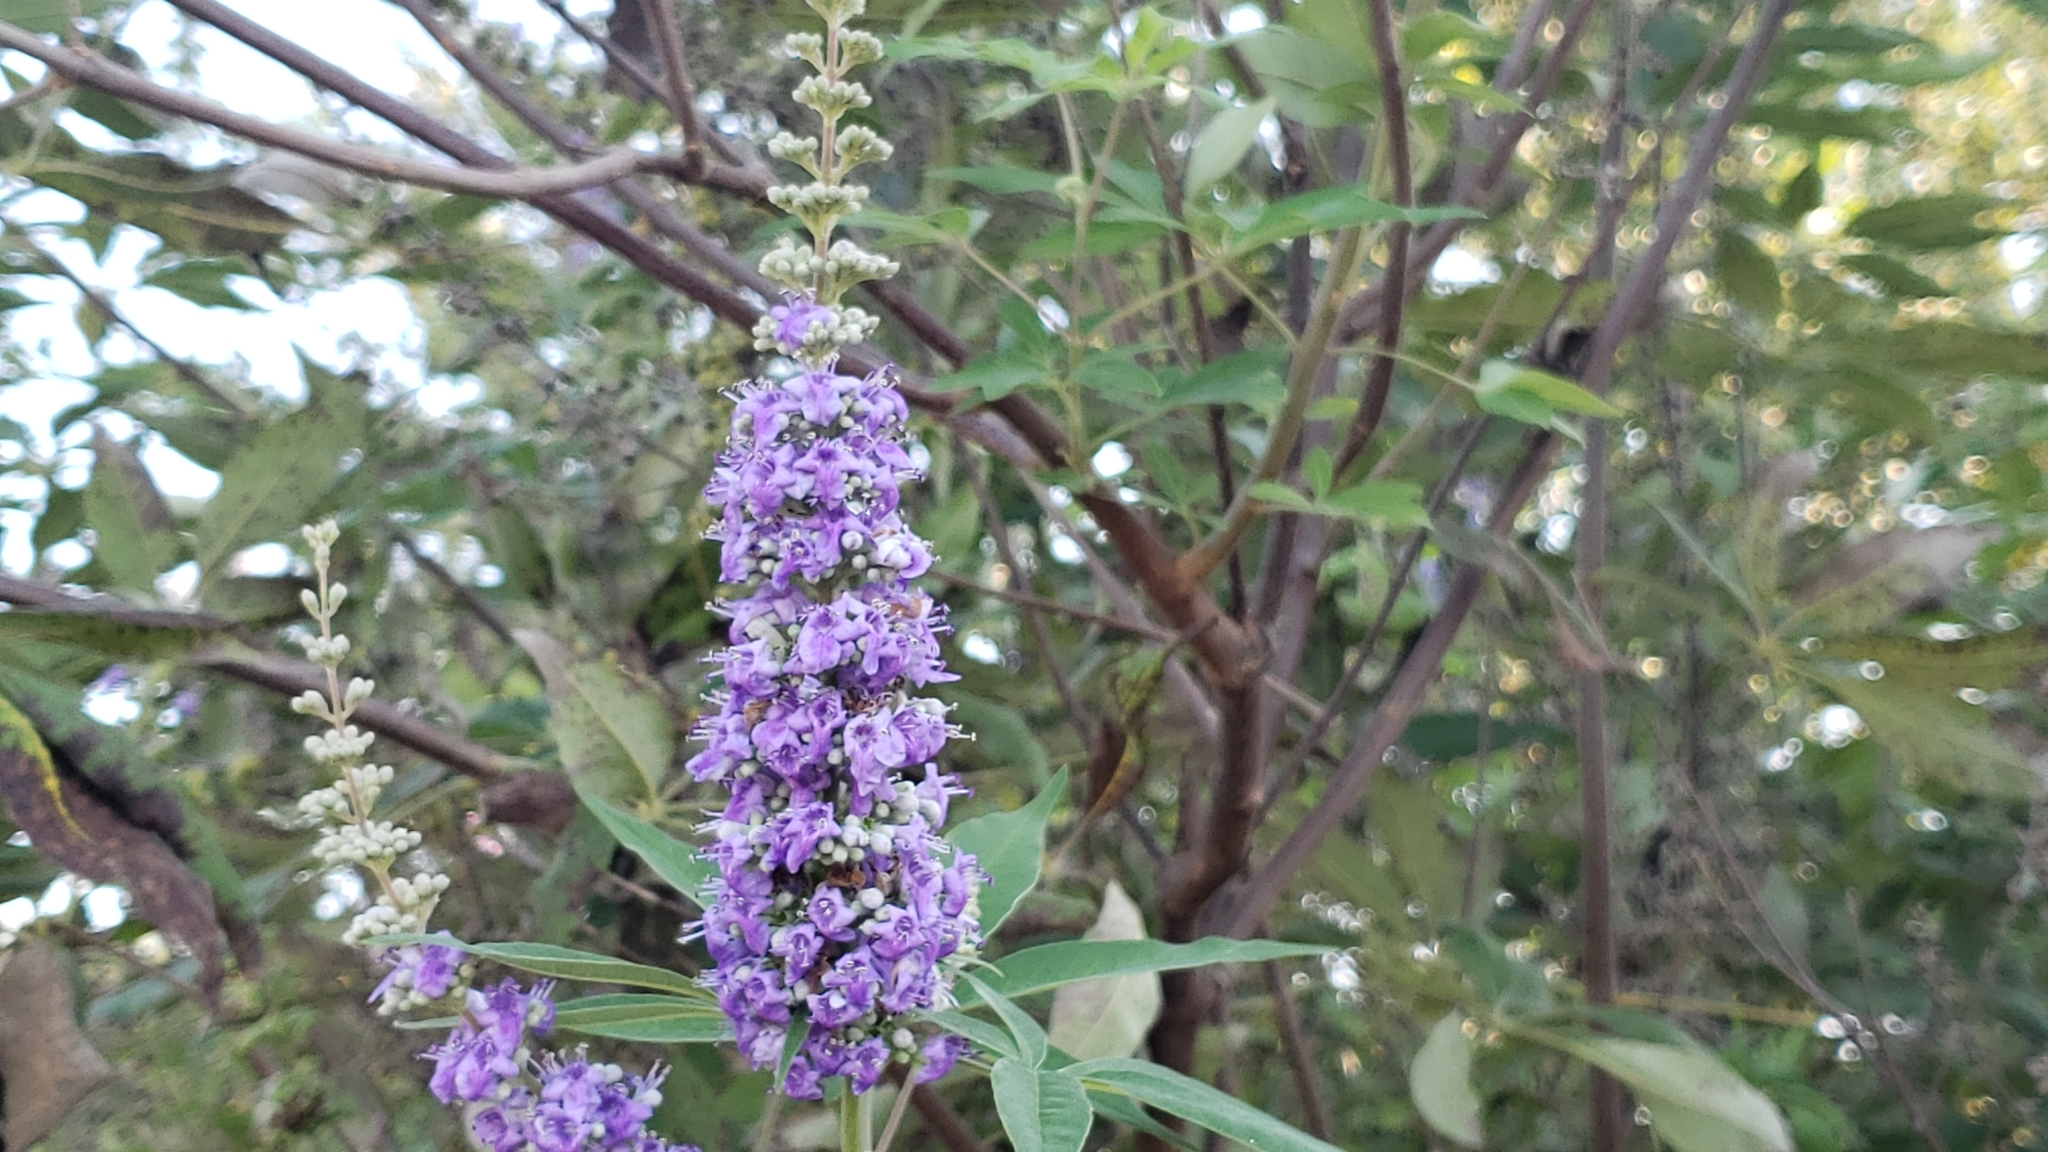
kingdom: Plantae
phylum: Tracheophyta
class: Magnoliopsida
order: Lamiales
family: Lamiaceae
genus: Vitex
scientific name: Vitex agnus-castus
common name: Chasteberry
